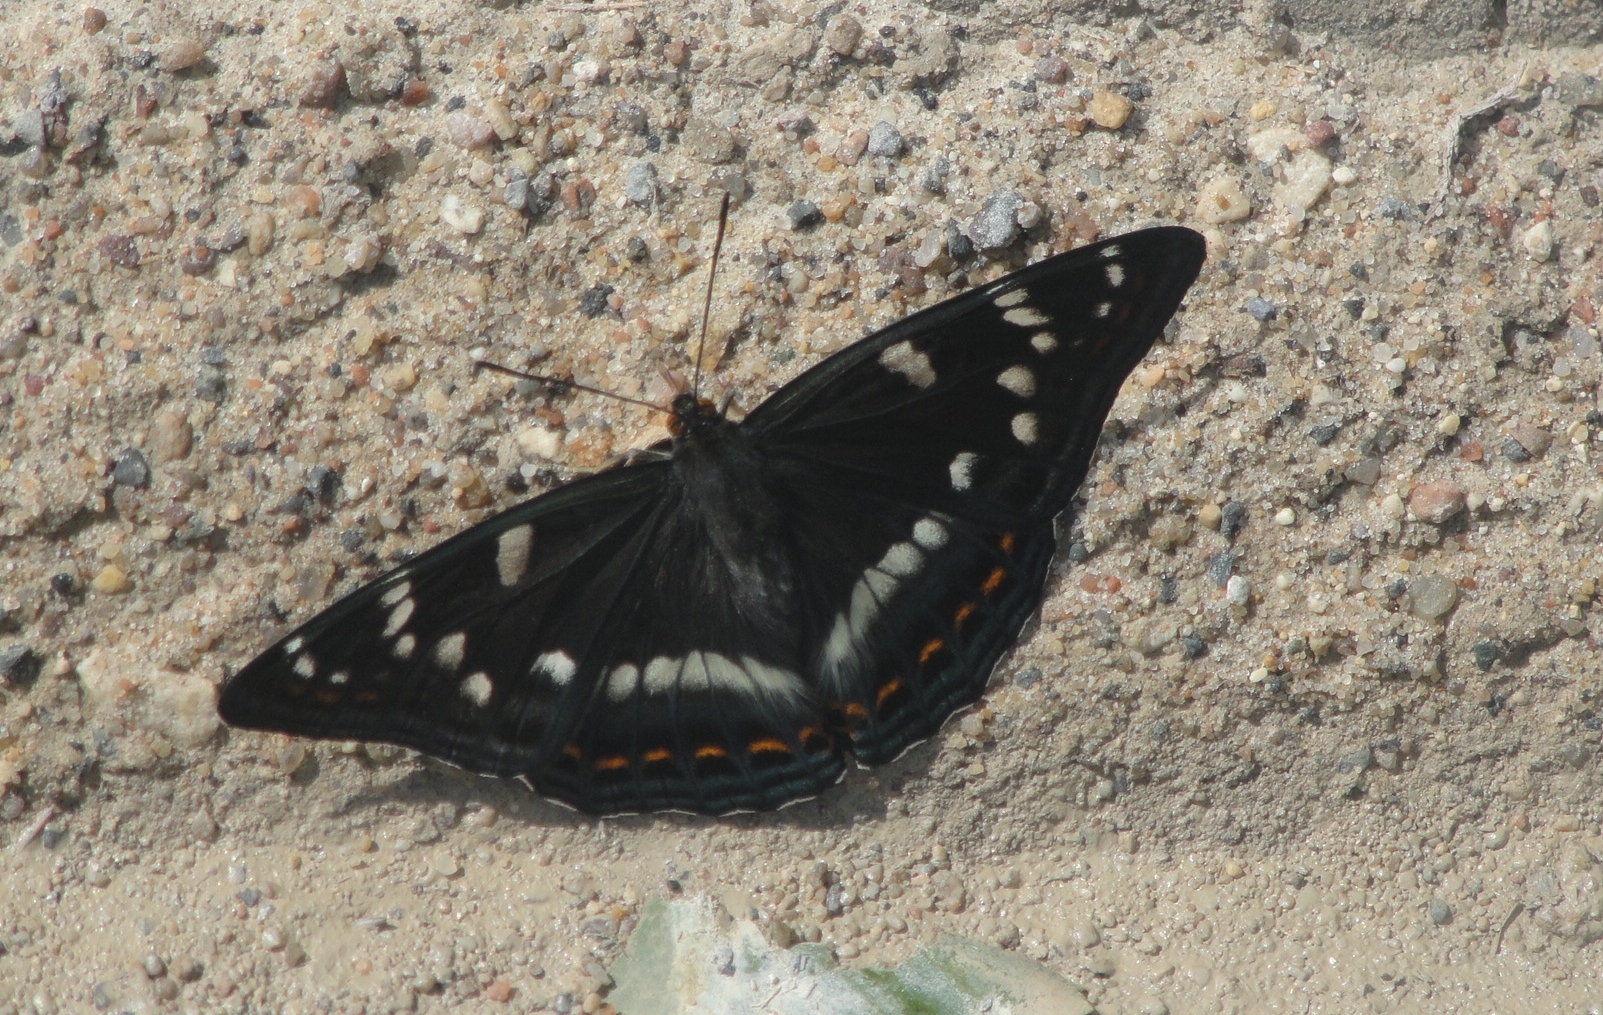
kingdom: Animalia
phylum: Arthropoda
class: Insecta
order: Lepidoptera
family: Nymphalidae
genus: Limenitis
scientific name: Limenitis populi
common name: Poplar admiral
